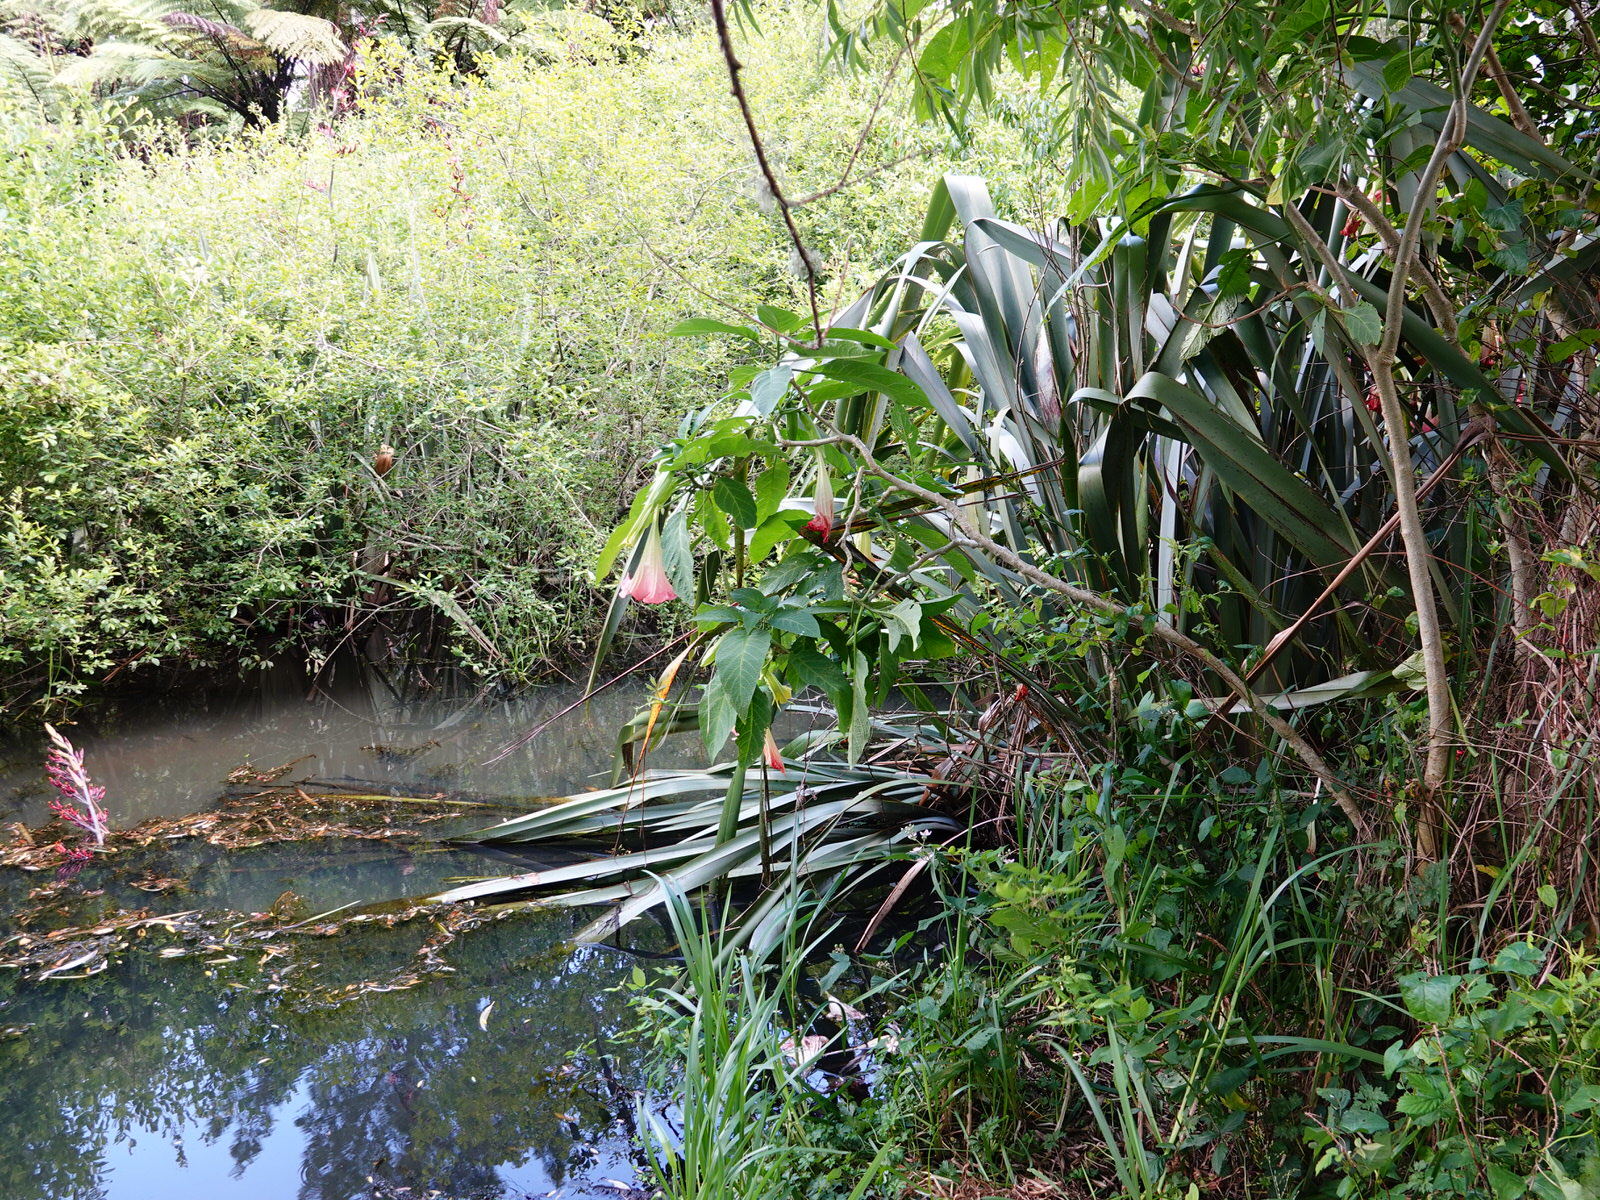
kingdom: Plantae
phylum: Tracheophyta
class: Liliopsida
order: Asparagales
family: Asphodelaceae
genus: Phormium
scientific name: Phormium tenax
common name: New zealand flax
